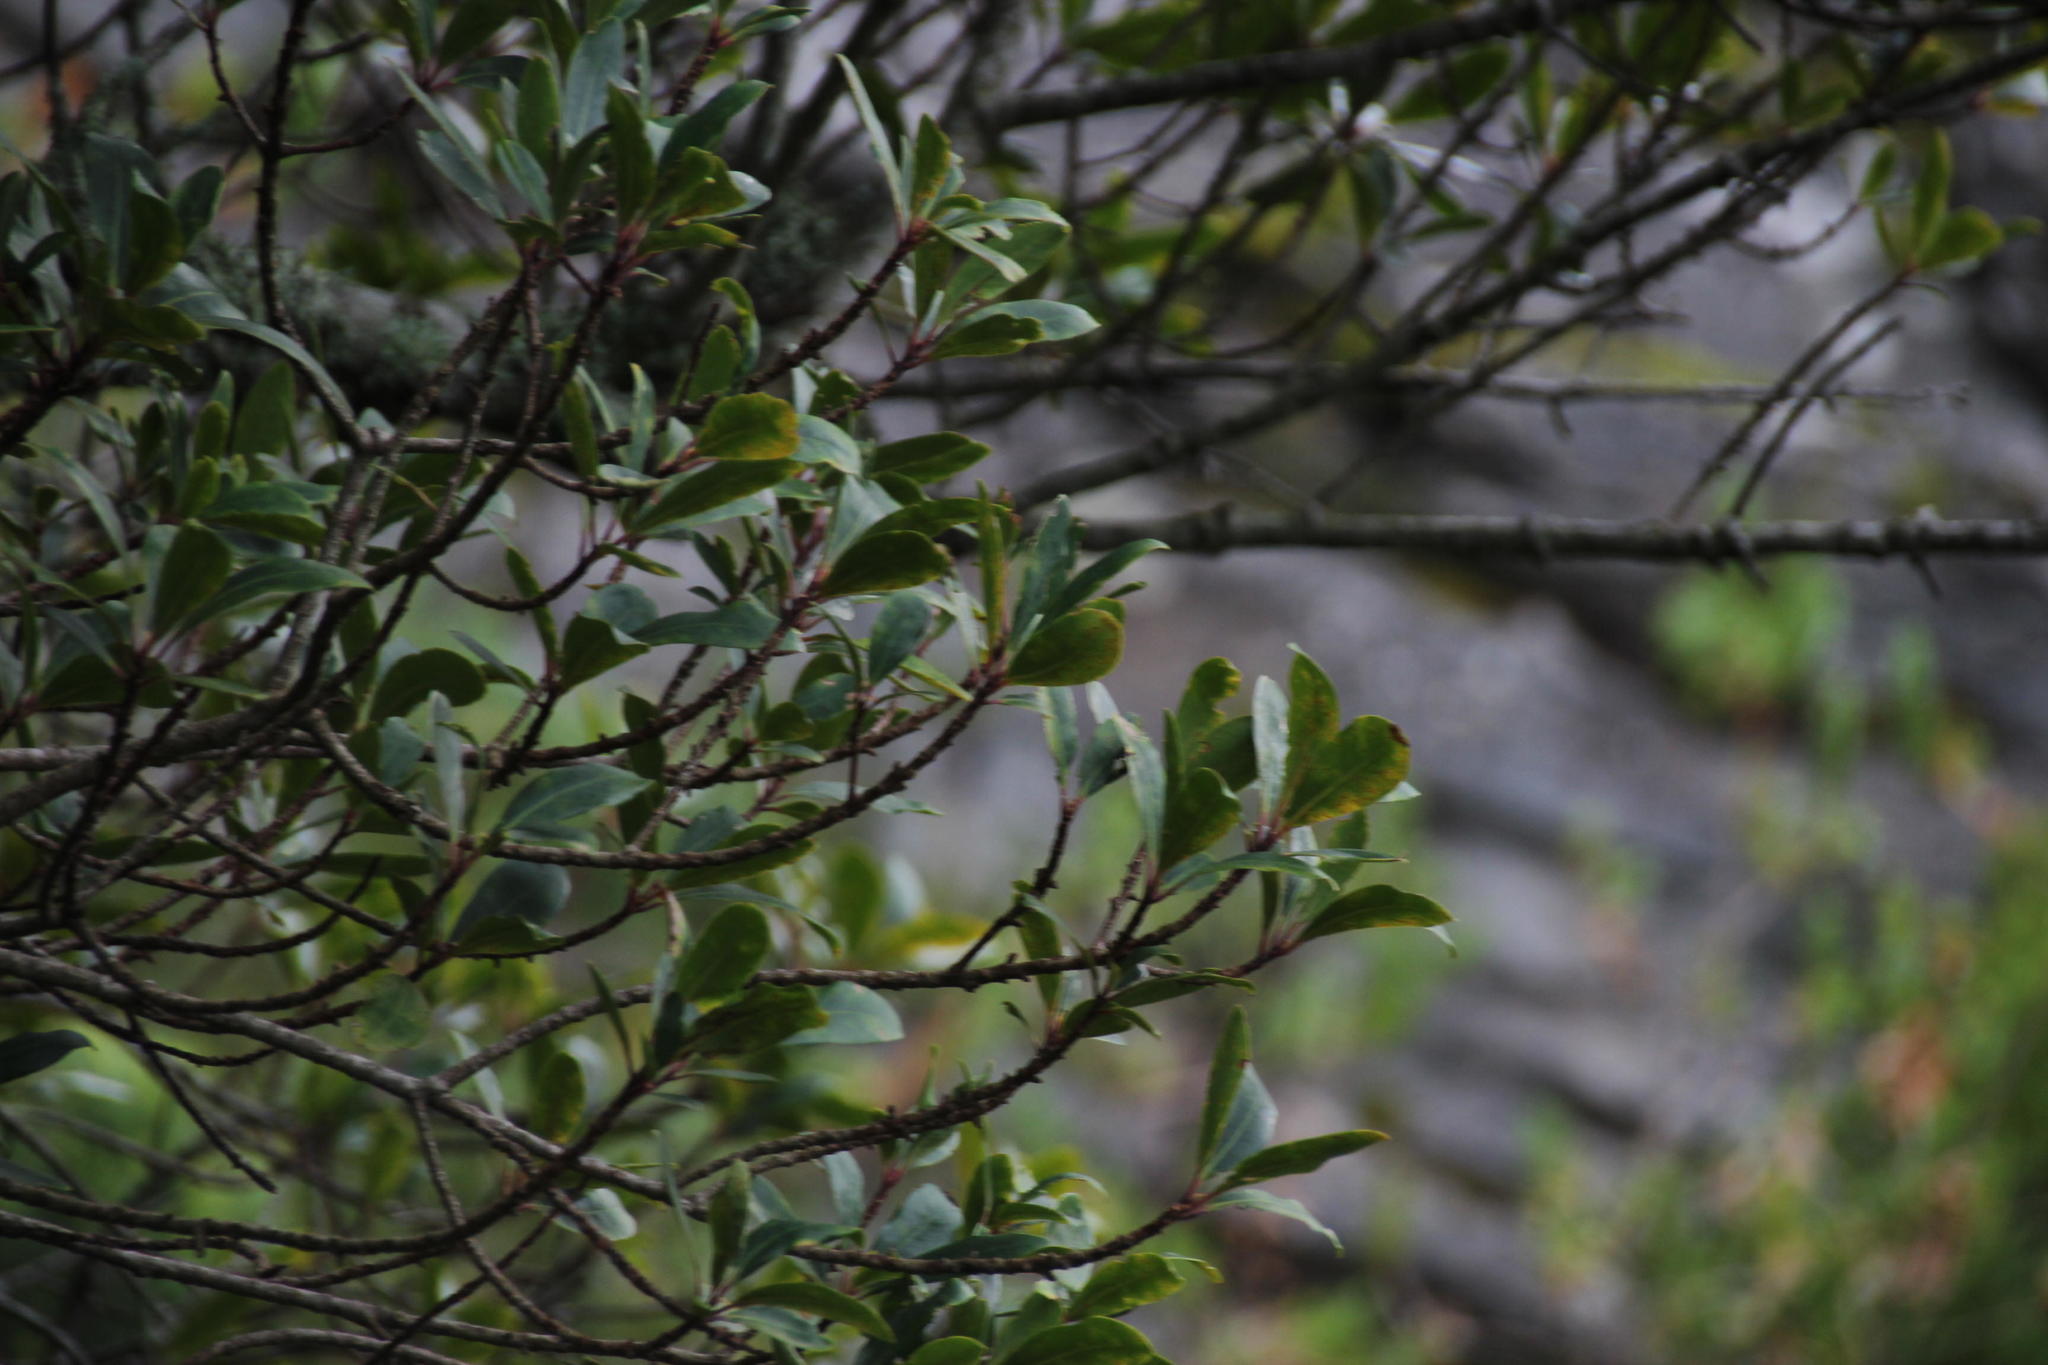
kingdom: Plantae
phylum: Tracheophyta
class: Magnoliopsida
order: Ericales
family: Primulaceae
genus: Myrsine
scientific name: Myrsine melanophloeos
